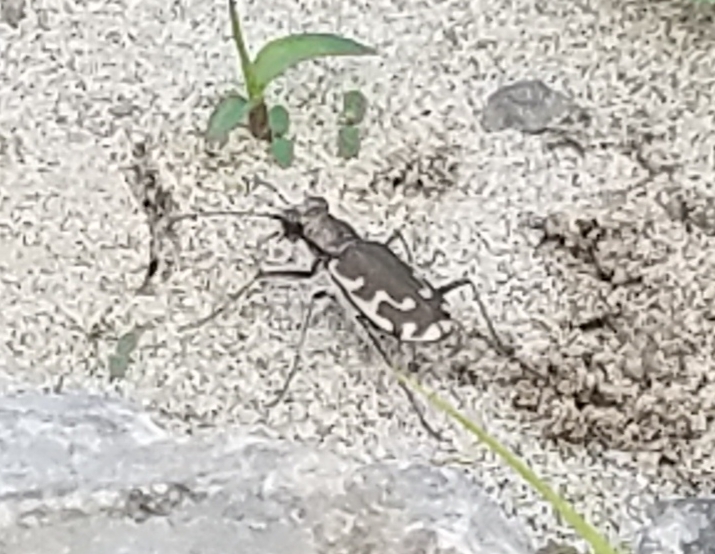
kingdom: Animalia
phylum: Arthropoda
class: Insecta
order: Coleoptera
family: Carabidae
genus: Cicindela
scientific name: Cicindela repanda
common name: Bronzed tiger beetle
